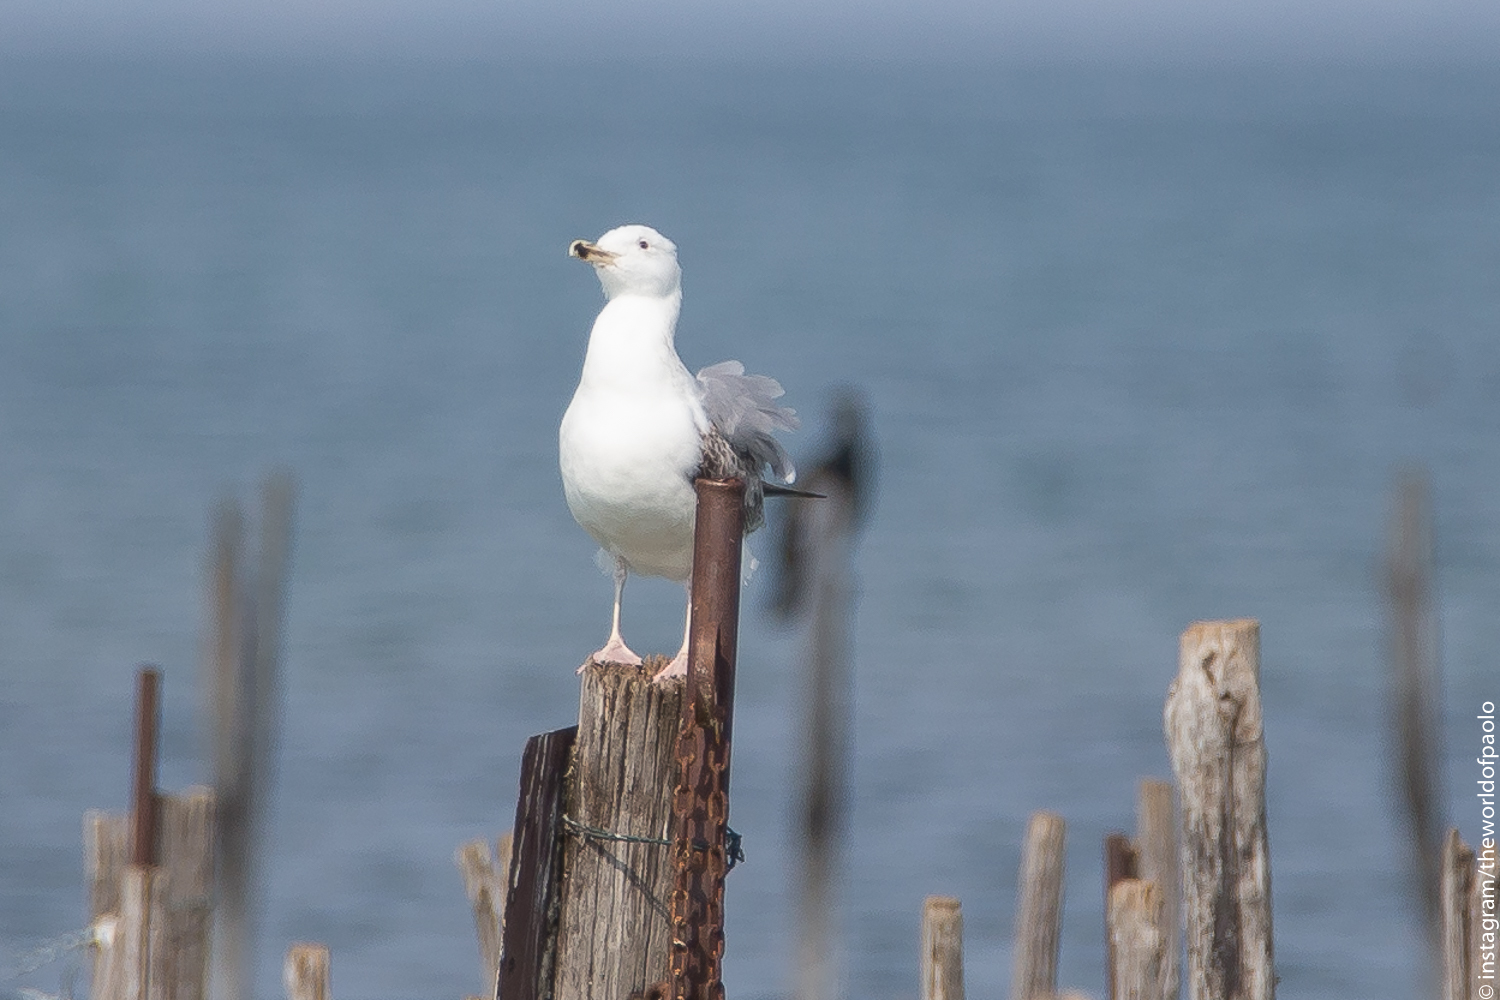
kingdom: Animalia
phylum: Chordata
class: Aves
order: Charadriiformes
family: Laridae
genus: Larus
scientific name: Larus argentatus
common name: Herring gull
